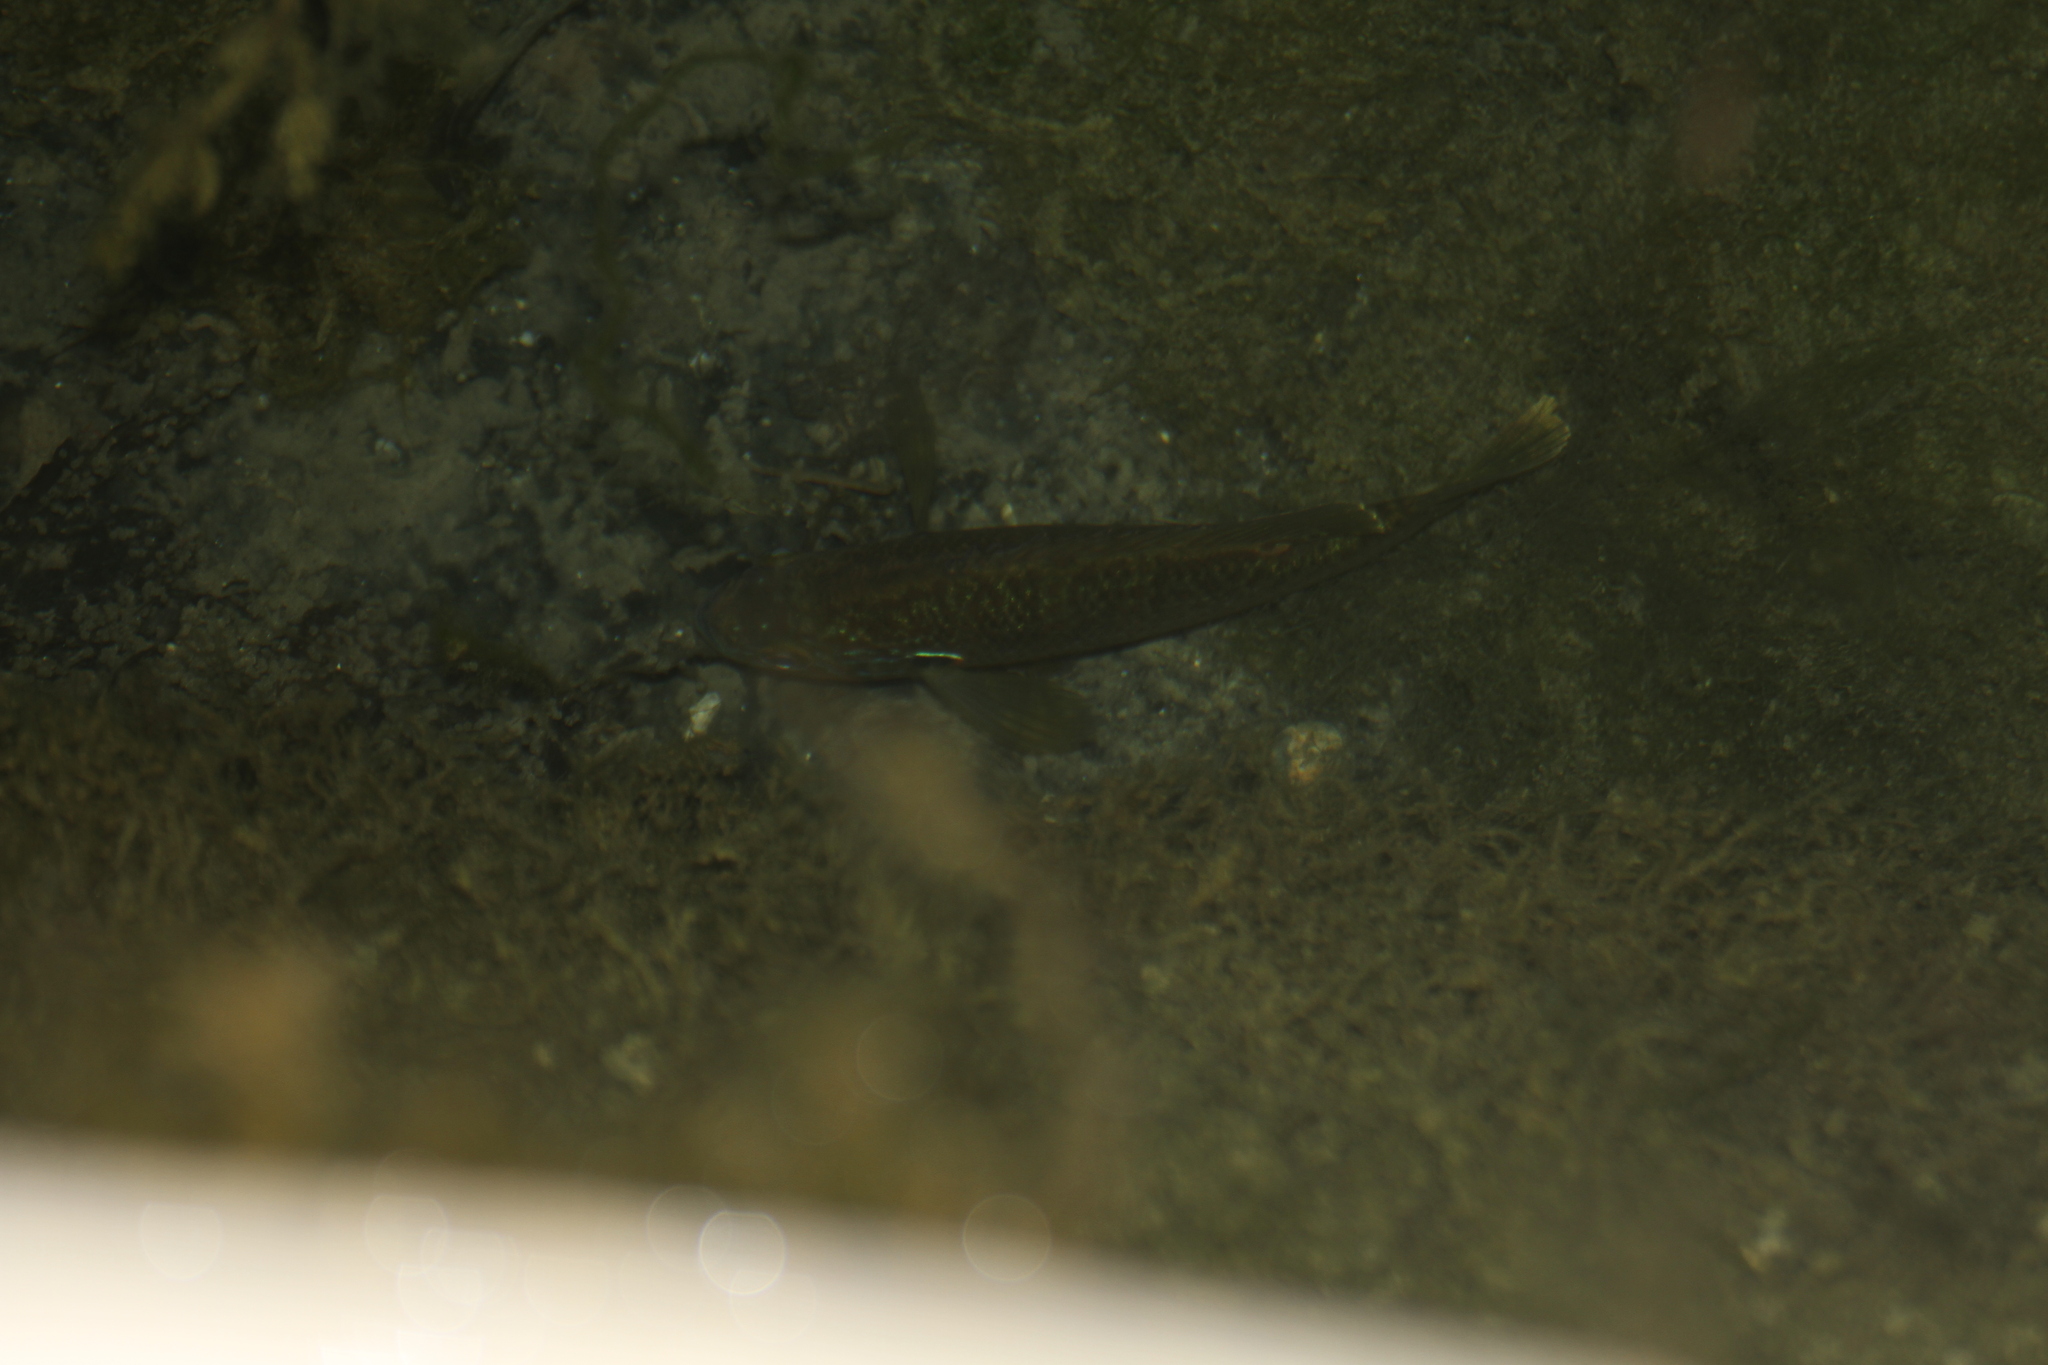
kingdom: Animalia
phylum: Chordata
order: Perciformes
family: Centrarchidae
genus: Lepomis
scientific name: Lepomis gibbosus
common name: Pumpkinseed
